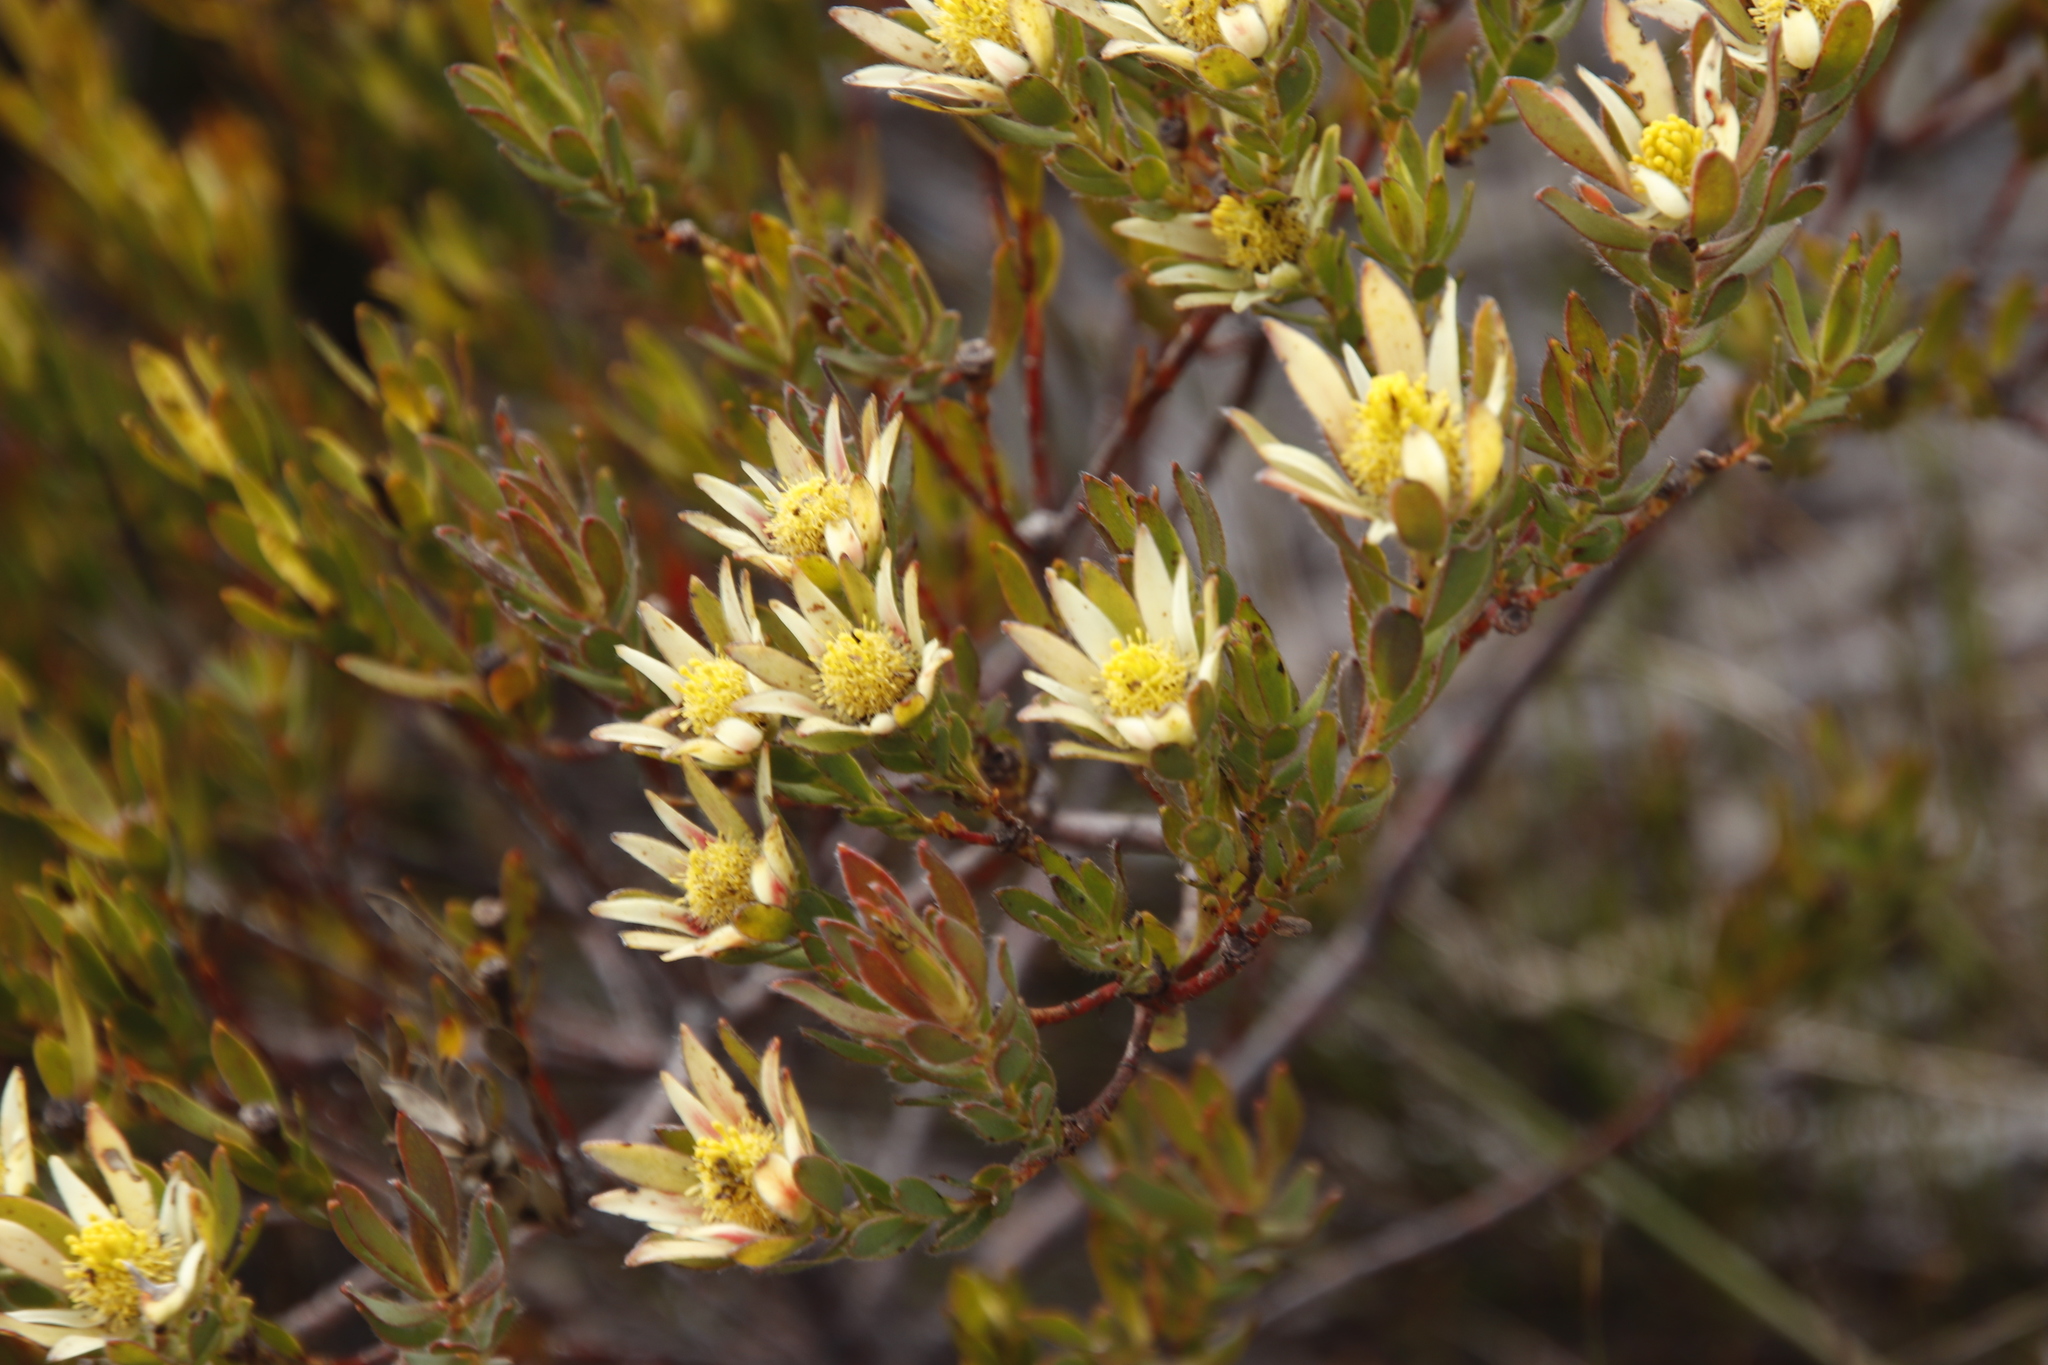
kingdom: Plantae
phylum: Tracheophyta
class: Magnoliopsida
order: Proteales
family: Proteaceae
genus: Leucadendron
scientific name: Leucadendron modestum
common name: Rough-leaf conebush
